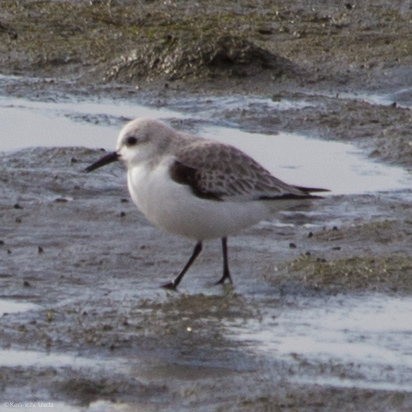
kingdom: Animalia
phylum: Chordata
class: Aves
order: Charadriiformes
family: Scolopacidae
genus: Calidris
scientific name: Calidris alba
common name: Sanderling
